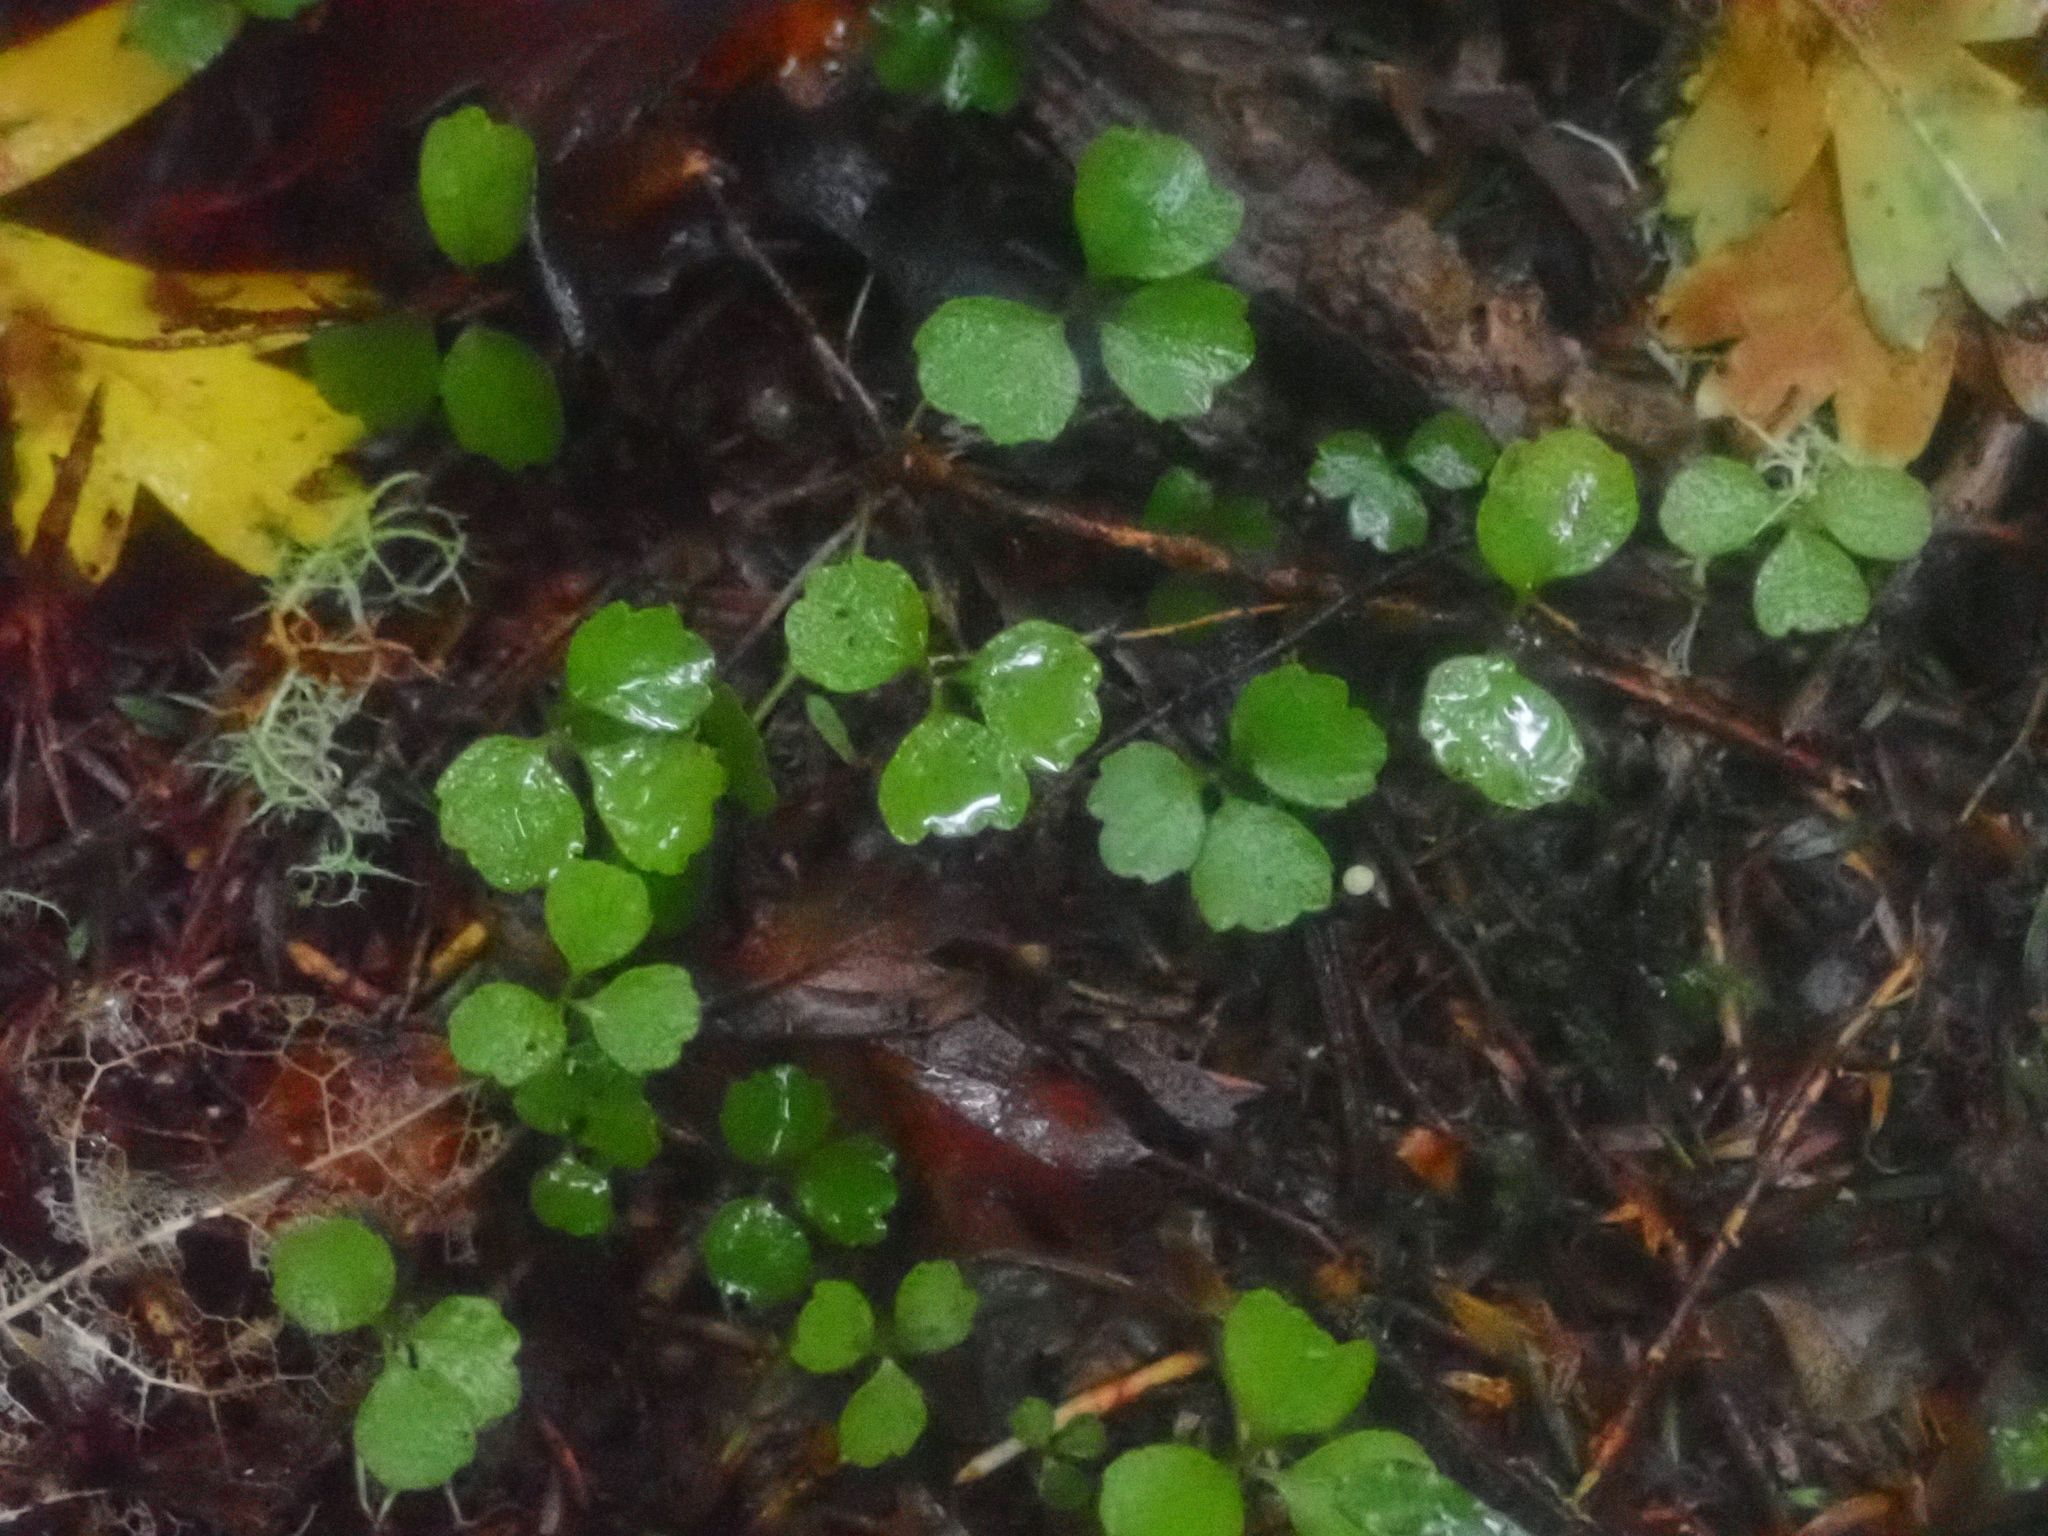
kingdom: Plantae
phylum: Tracheophyta
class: Magnoliopsida
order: Apiales
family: Apiaceae
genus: Azorella
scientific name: Azorella hookeri
